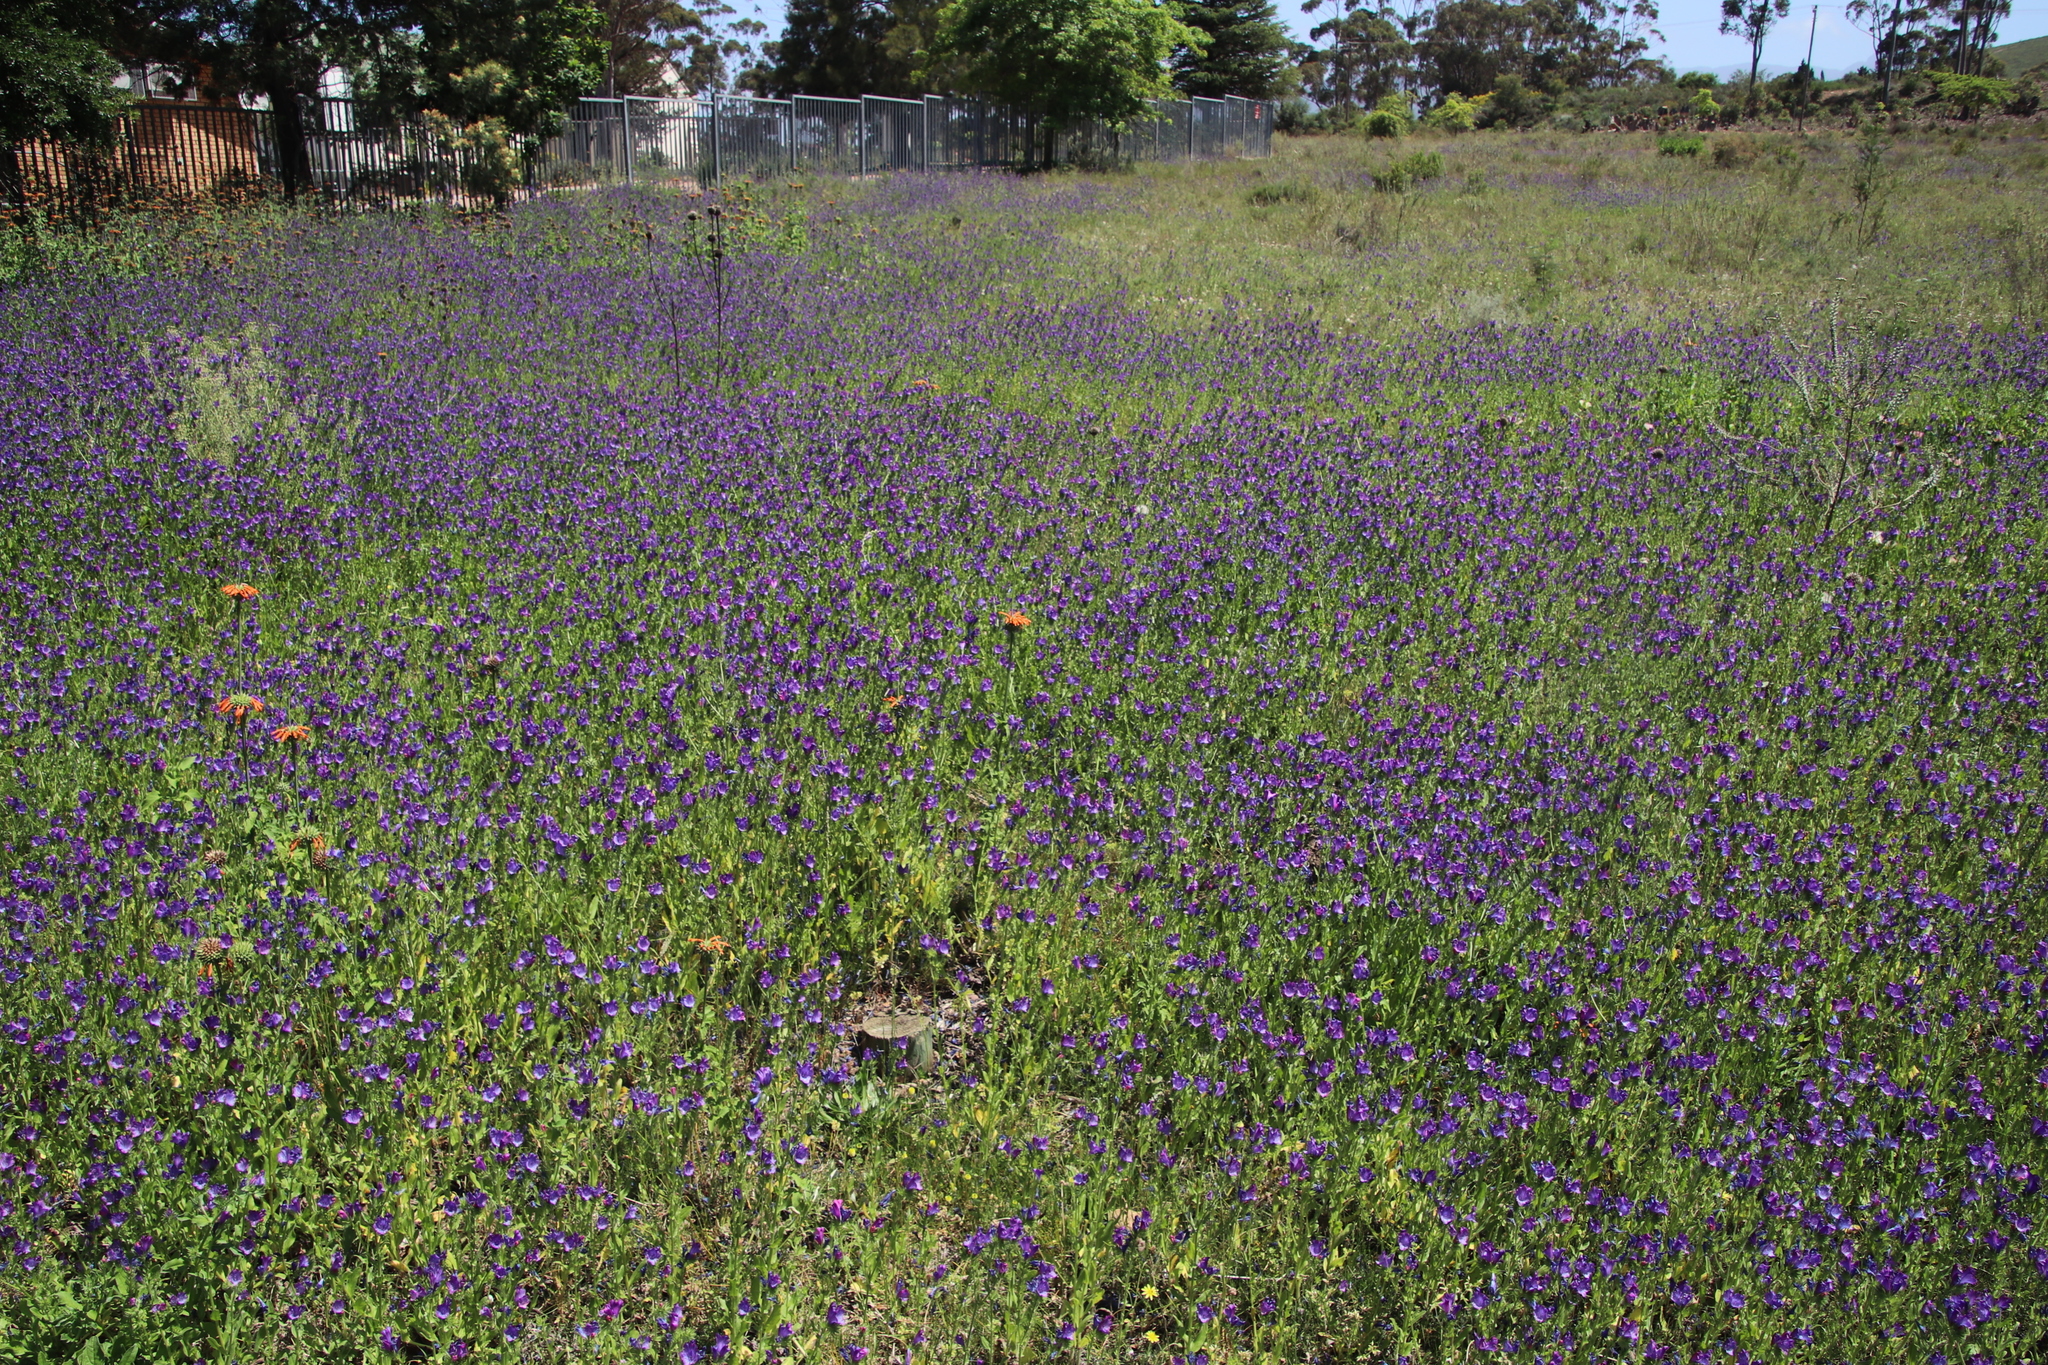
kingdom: Plantae
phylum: Tracheophyta
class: Magnoliopsida
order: Lamiales
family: Lamiaceae
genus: Leonotis
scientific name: Leonotis nepetifolia
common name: Christmas candlestick
